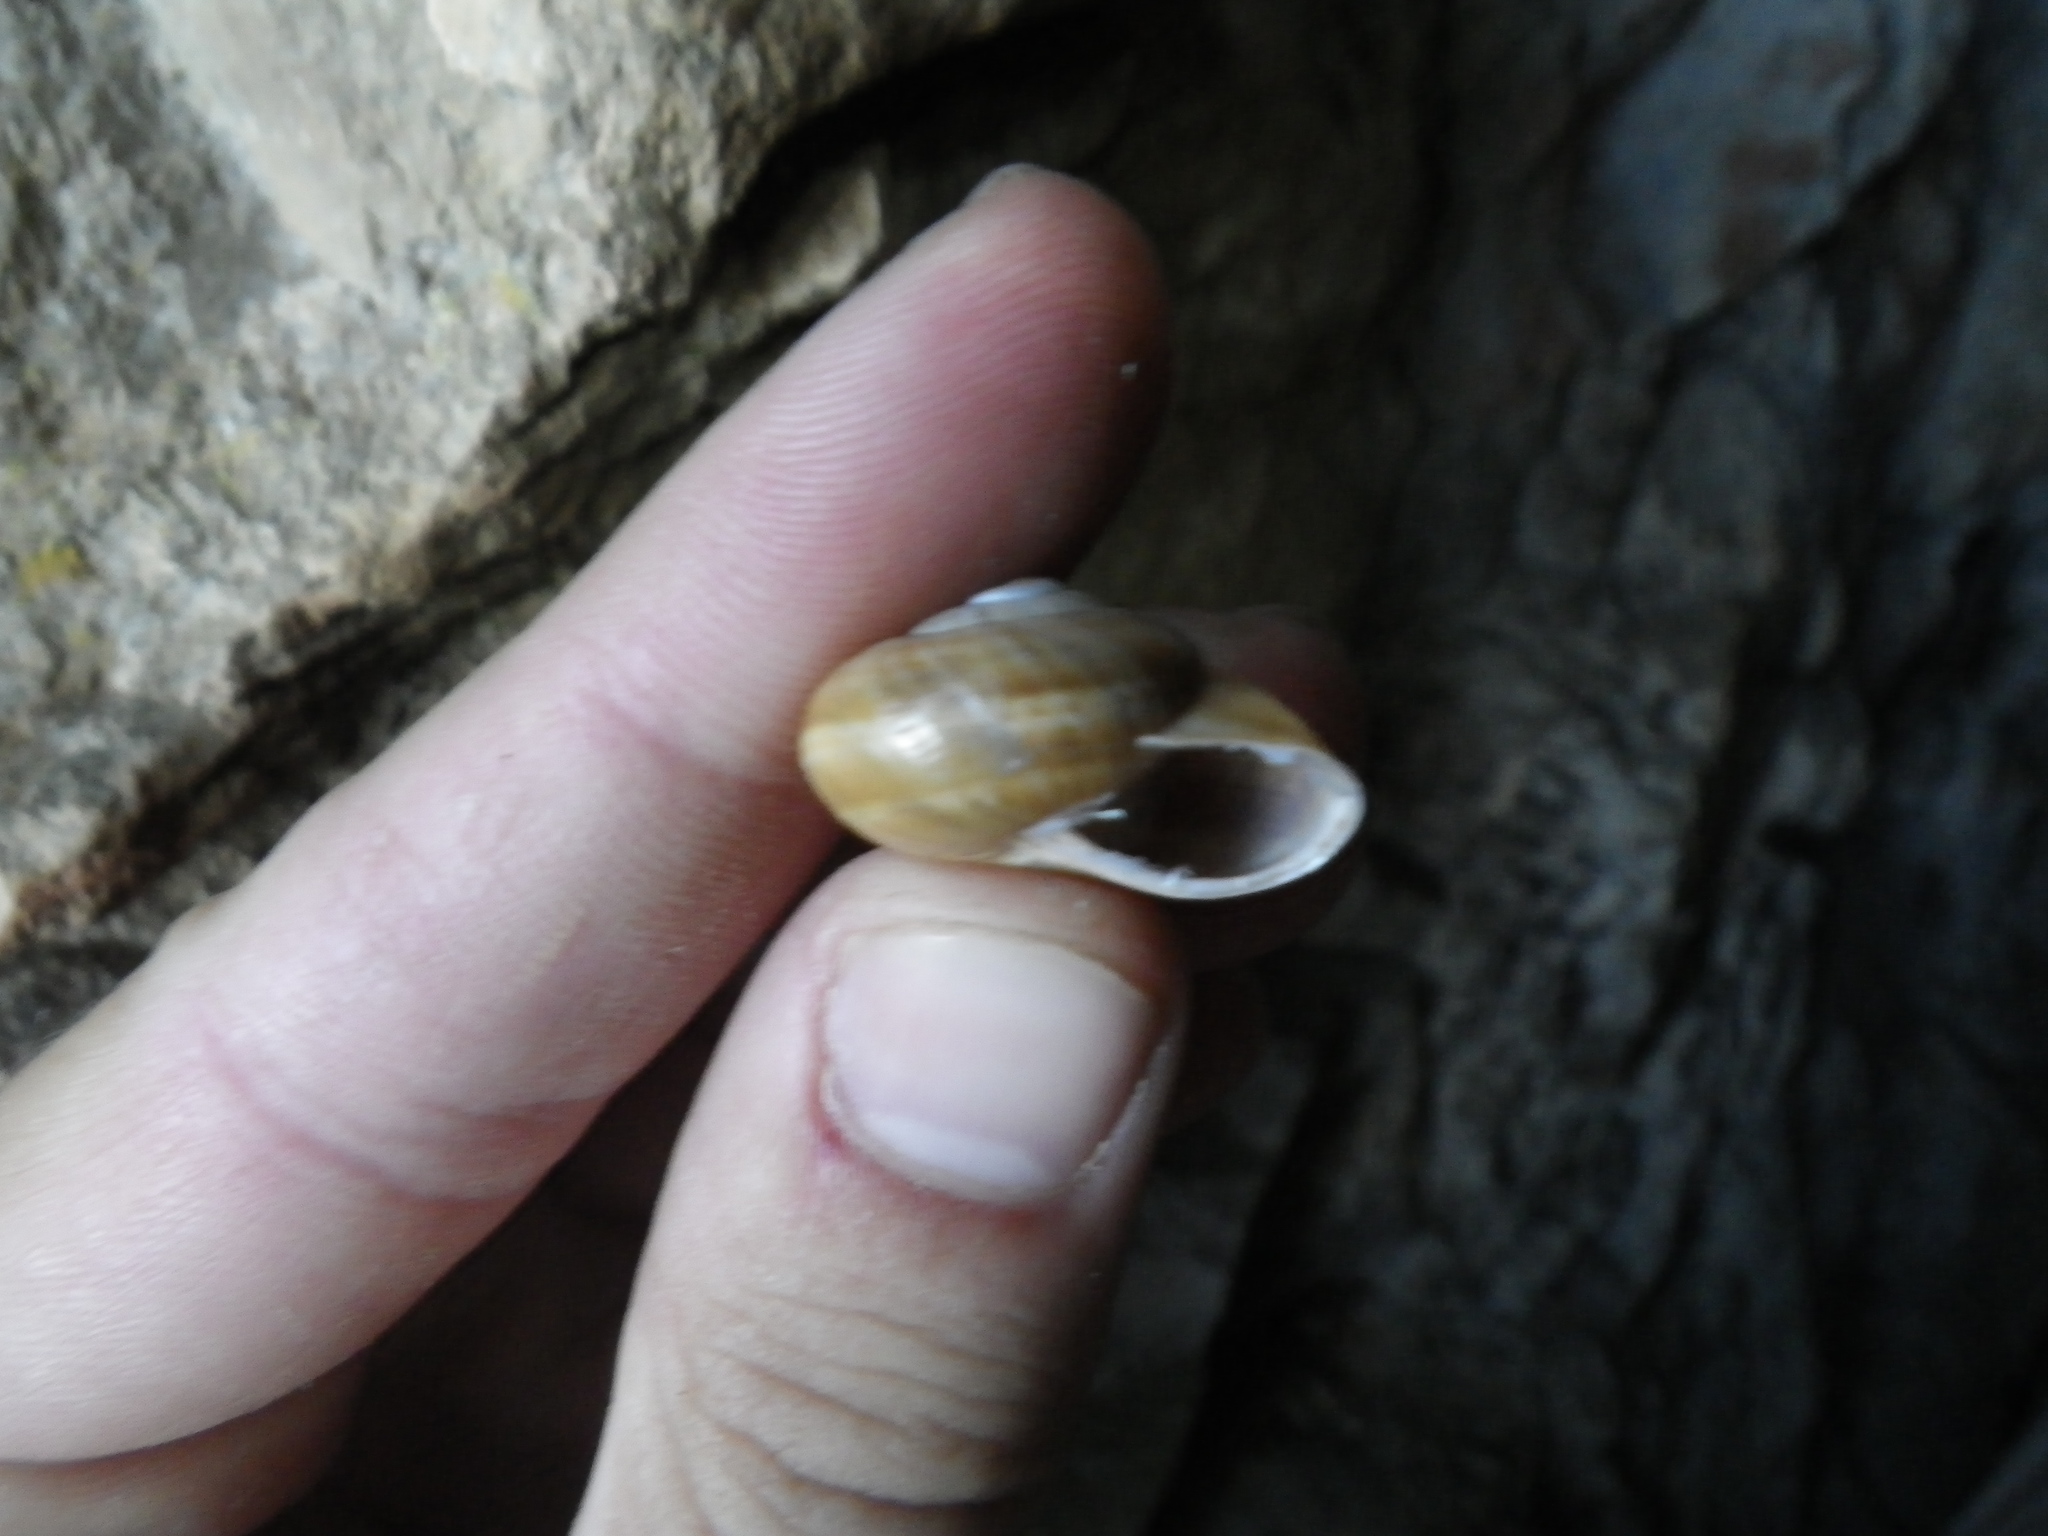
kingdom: Animalia
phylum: Mollusca
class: Gastropoda
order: Stylommatophora
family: Helicidae
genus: Pseudotachea
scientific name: Pseudotachea splendida
